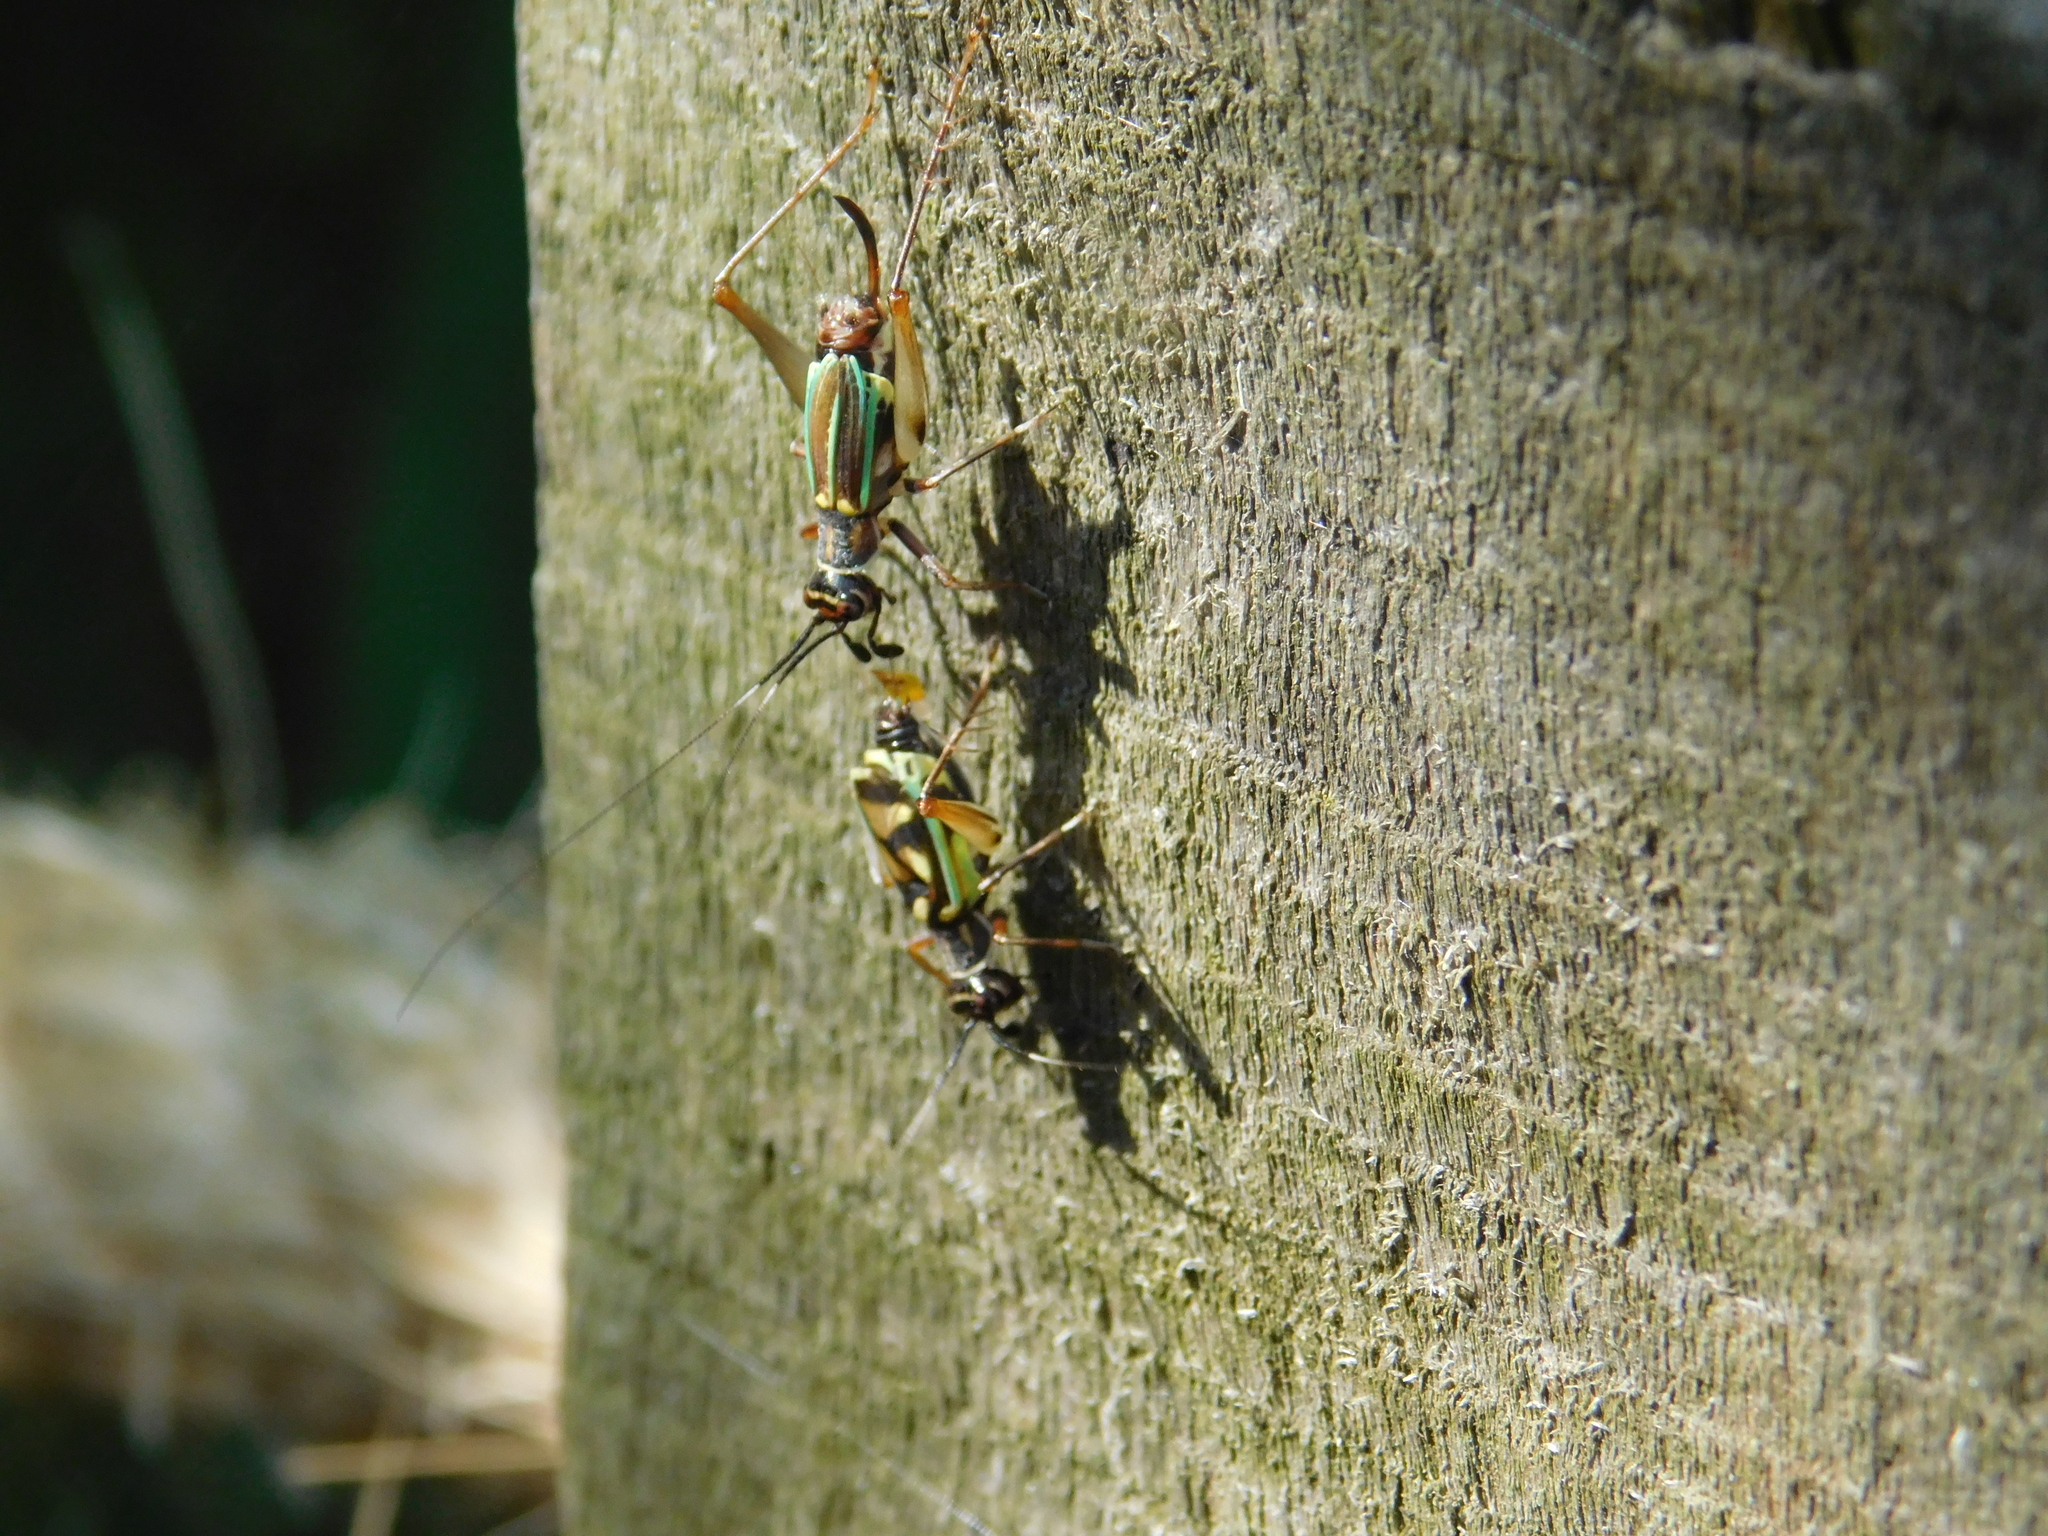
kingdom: Animalia
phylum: Arthropoda
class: Insecta
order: Orthoptera
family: Trigonidiidae
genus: Phylloscyrtus
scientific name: Phylloscyrtus amoenus
